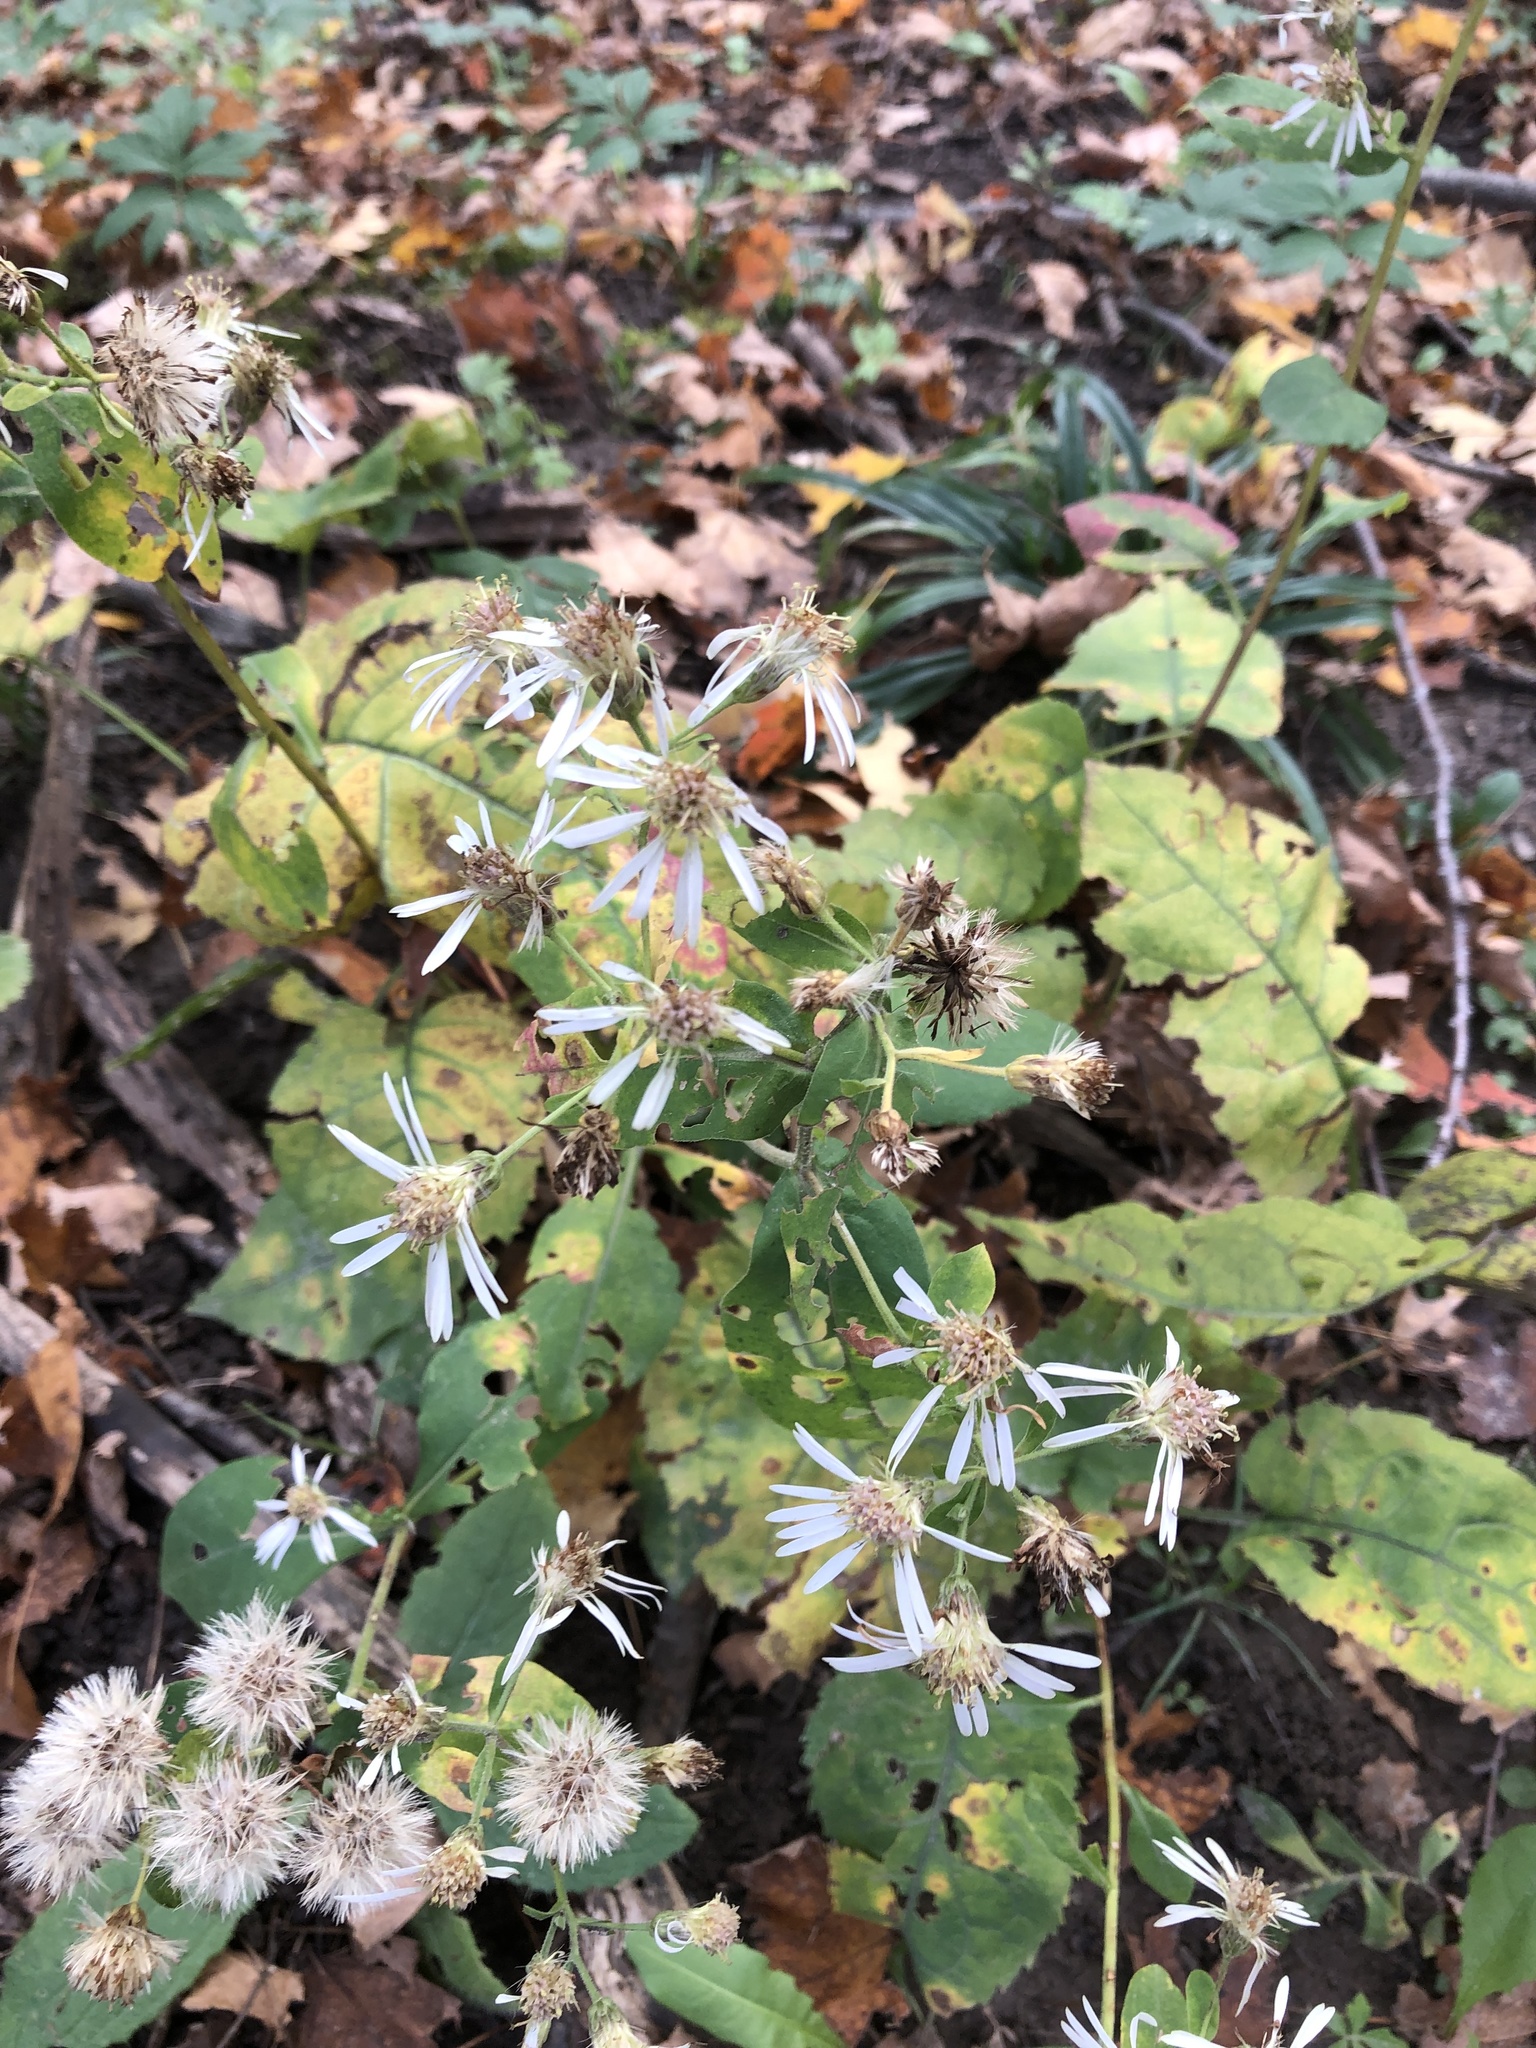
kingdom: Plantae
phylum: Tracheophyta
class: Magnoliopsida
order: Asterales
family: Asteraceae
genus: Eurybia
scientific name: Eurybia macrophylla
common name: Big-leaved aster
